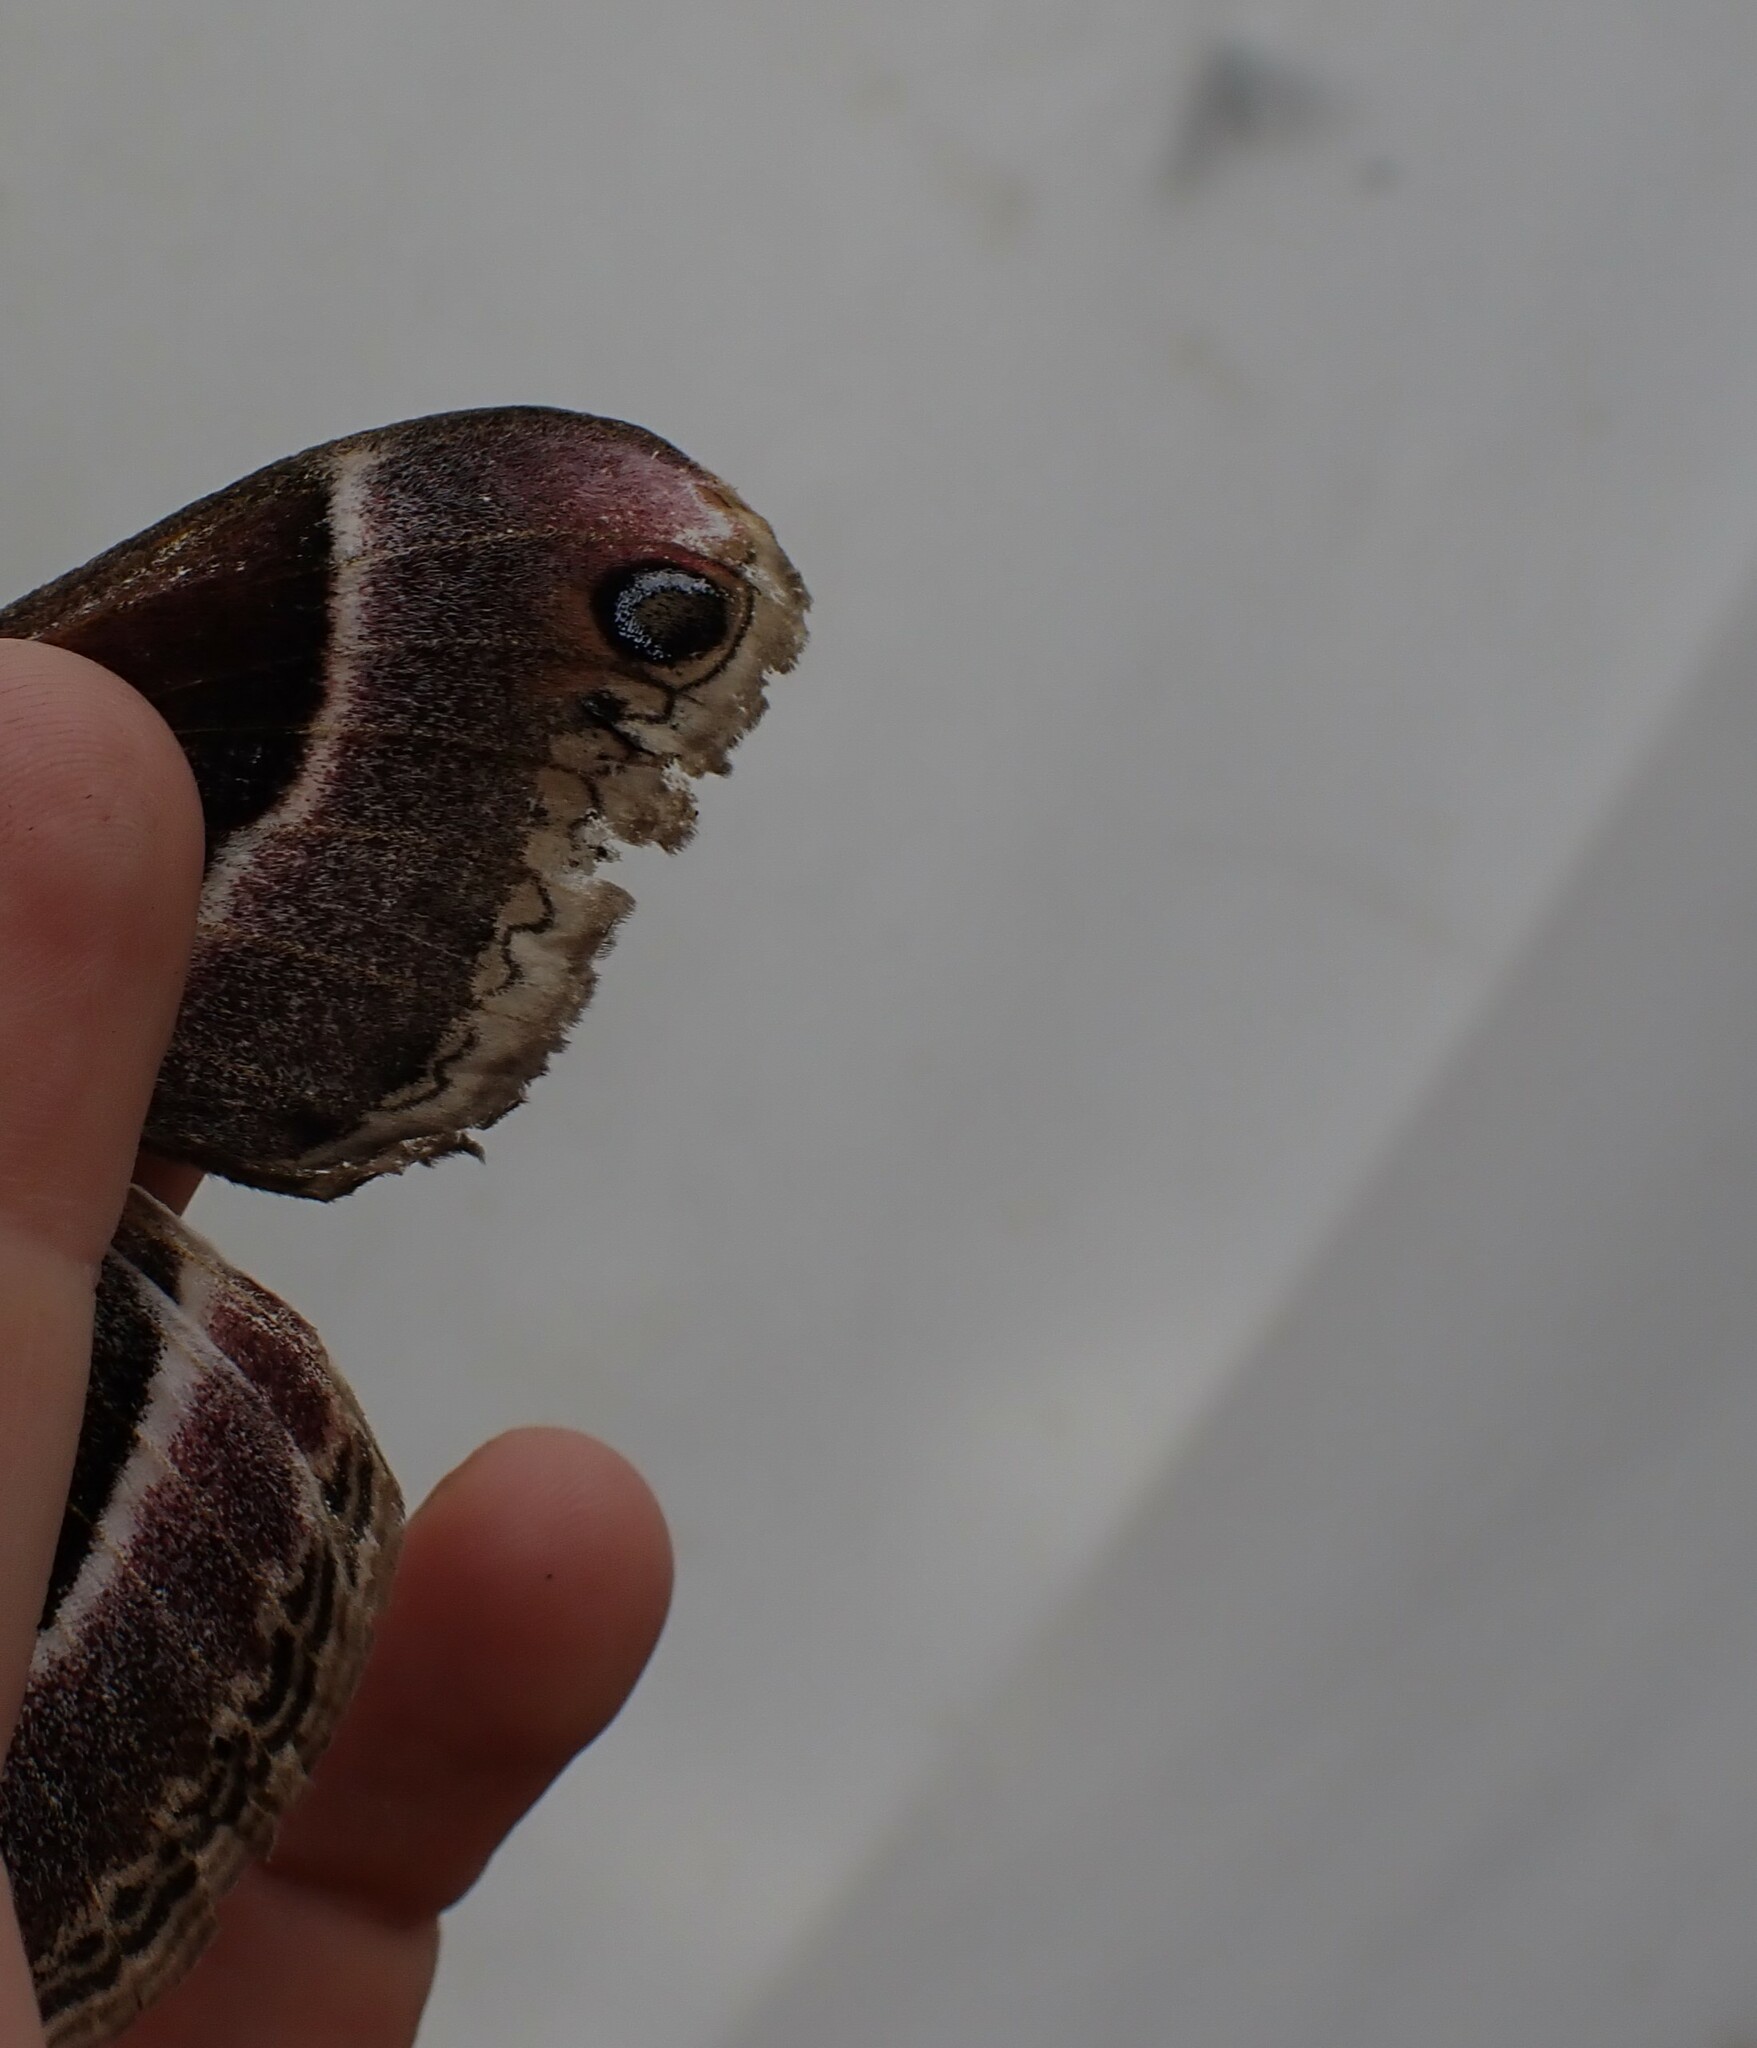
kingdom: Animalia
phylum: Arthropoda
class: Insecta
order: Lepidoptera
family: Saturniidae
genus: Hyalophora
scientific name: Hyalophora euryalus
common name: Ceanothus silkmoth
